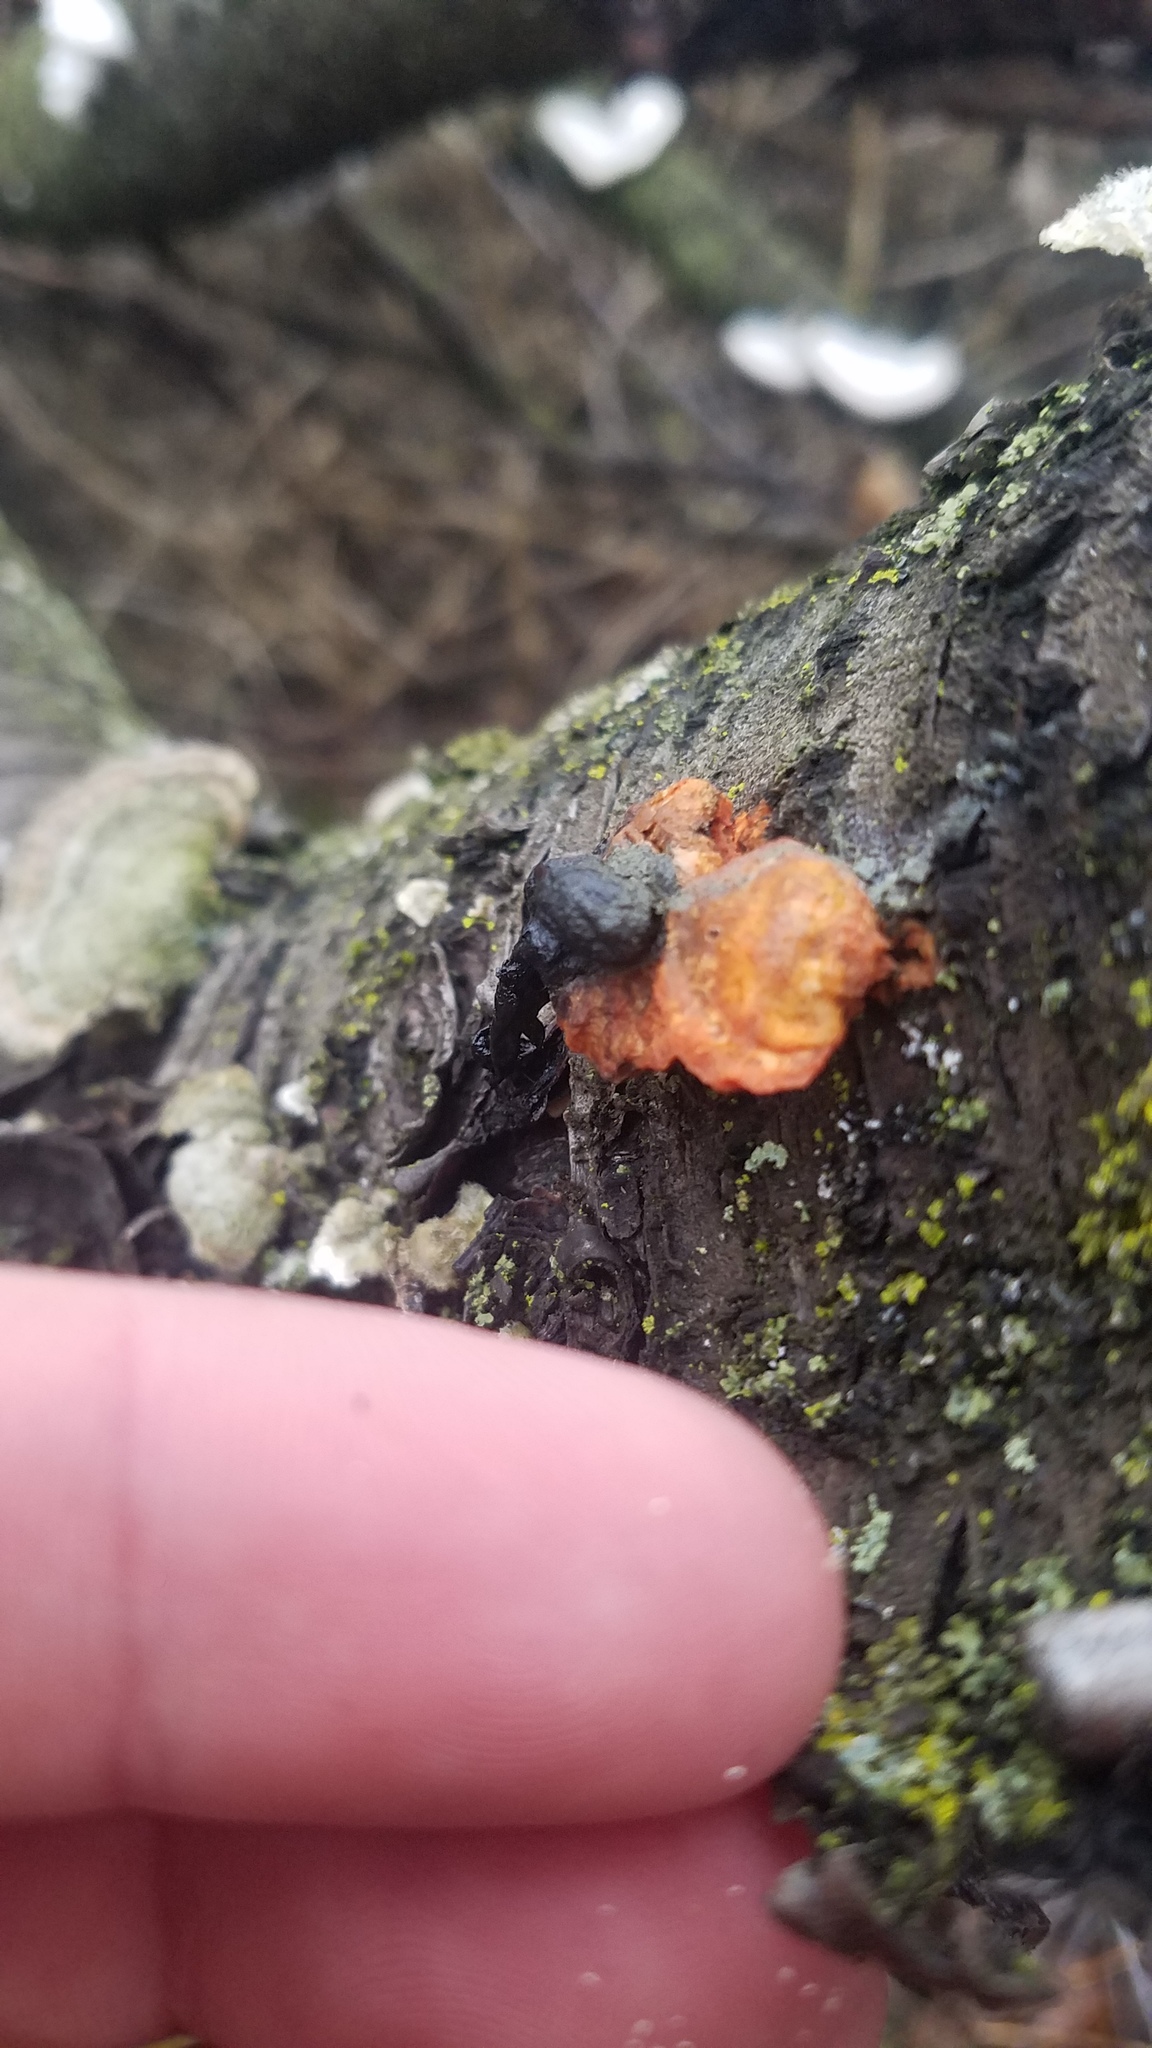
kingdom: Fungi
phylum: Basidiomycota
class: Agaricomycetes
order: Polyporales
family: Polyporaceae
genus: Trametes
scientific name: Trametes cinnabarina
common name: Northern cinnabar polypore
